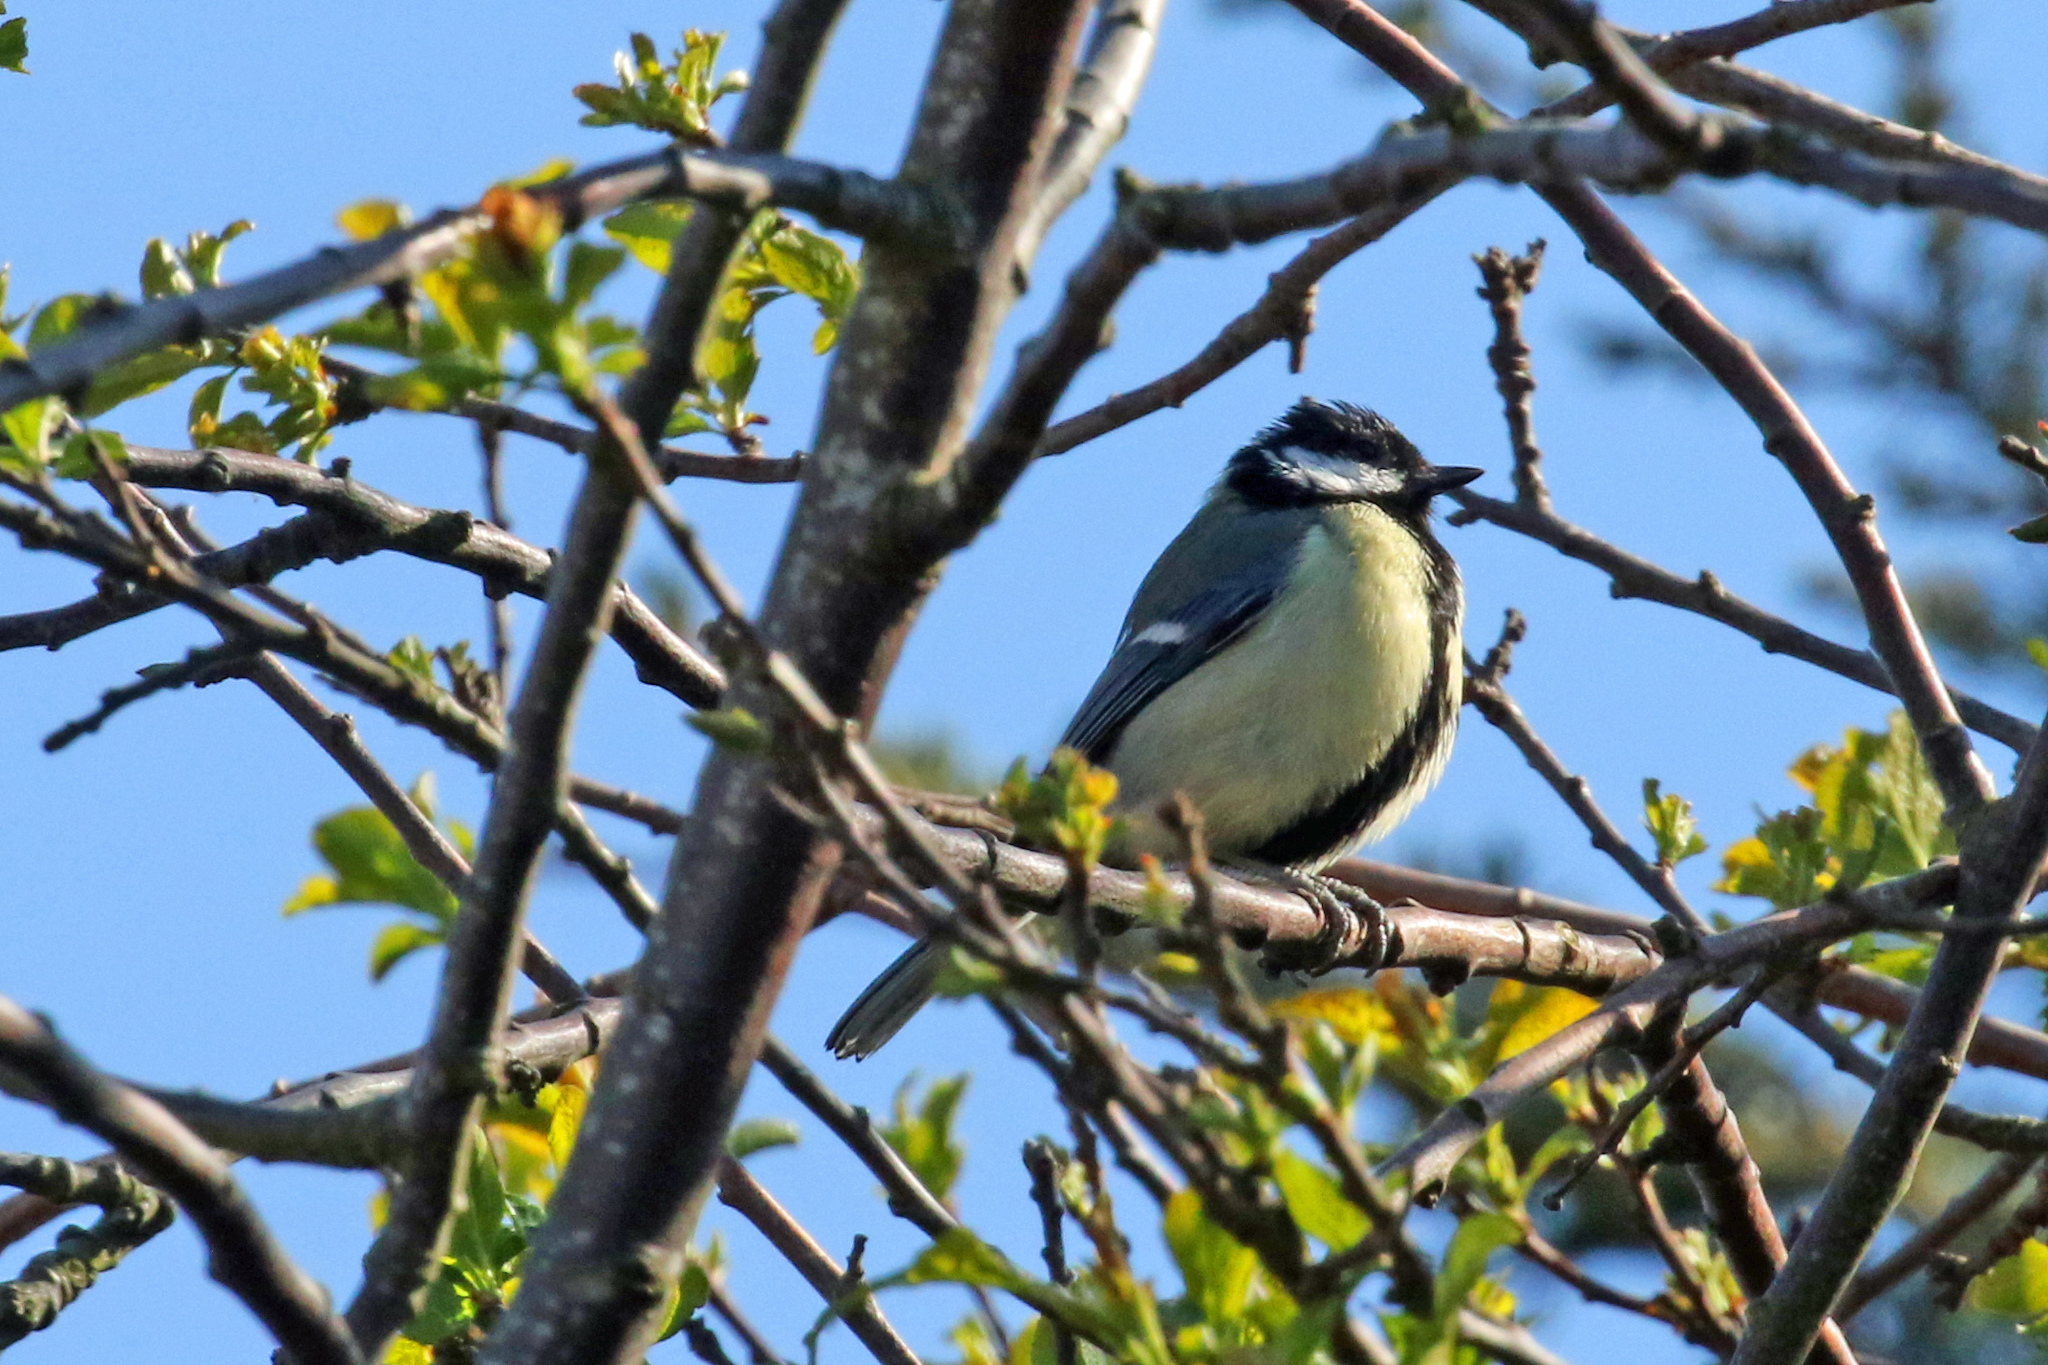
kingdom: Animalia
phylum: Chordata
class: Aves
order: Passeriformes
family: Paridae
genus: Parus
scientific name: Parus major
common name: Great tit
